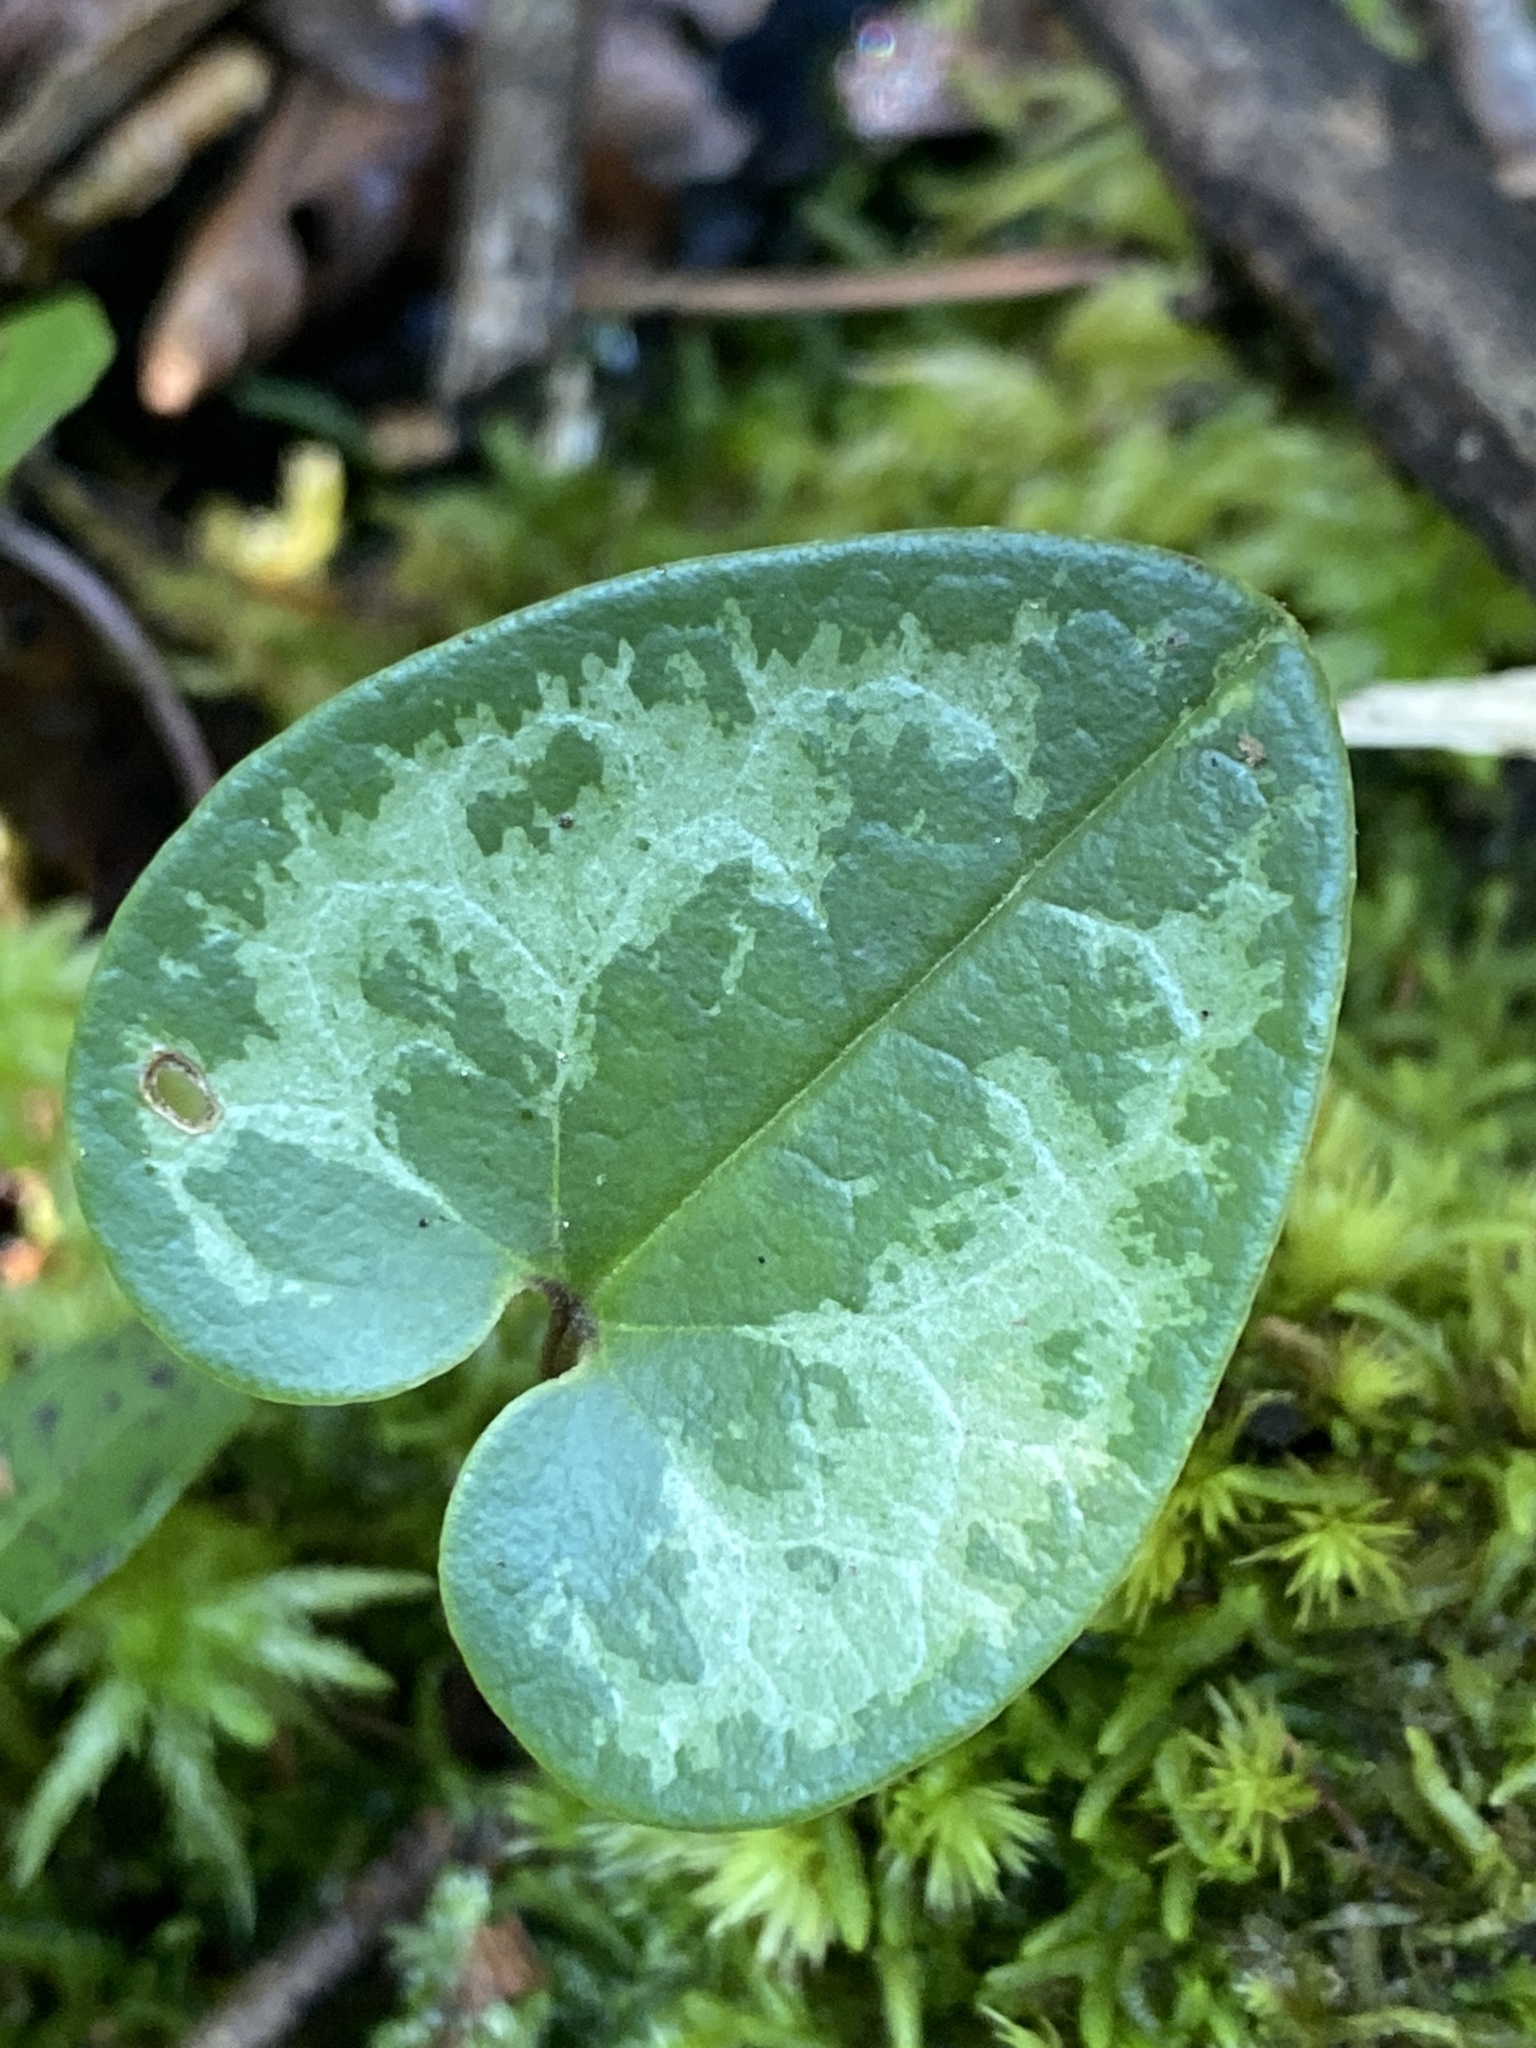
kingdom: Plantae
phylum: Tracheophyta
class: Magnoliopsida
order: Piperales
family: Aristolochiaceae
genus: Hexastylis
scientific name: Hexastylis sorriei
